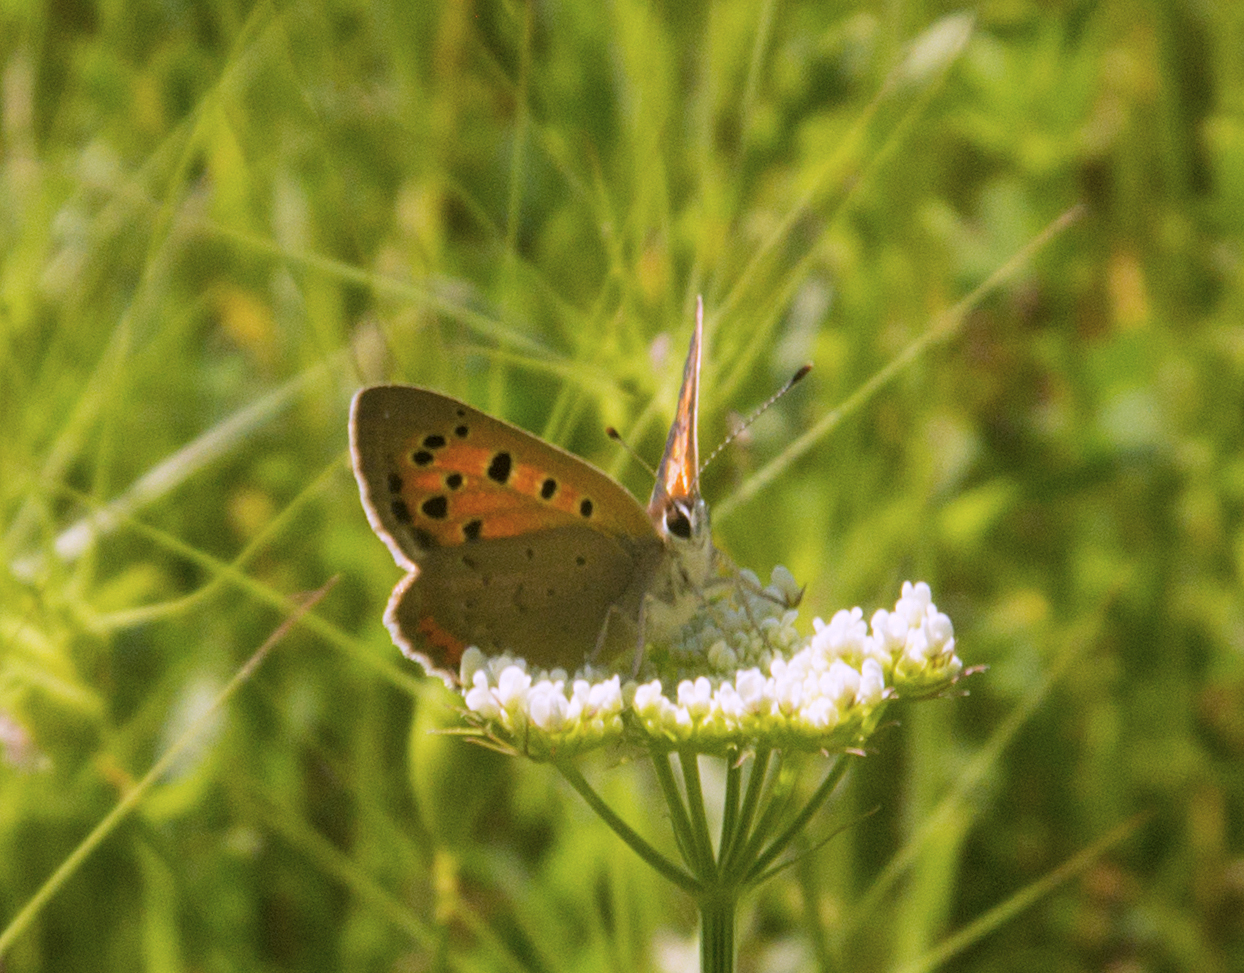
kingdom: Animalia
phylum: Arthropoda
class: Insecta
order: Lepidoptera
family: Lycaenidae
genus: Lycaena
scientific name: Lycaena phlaeas
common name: Small copper
